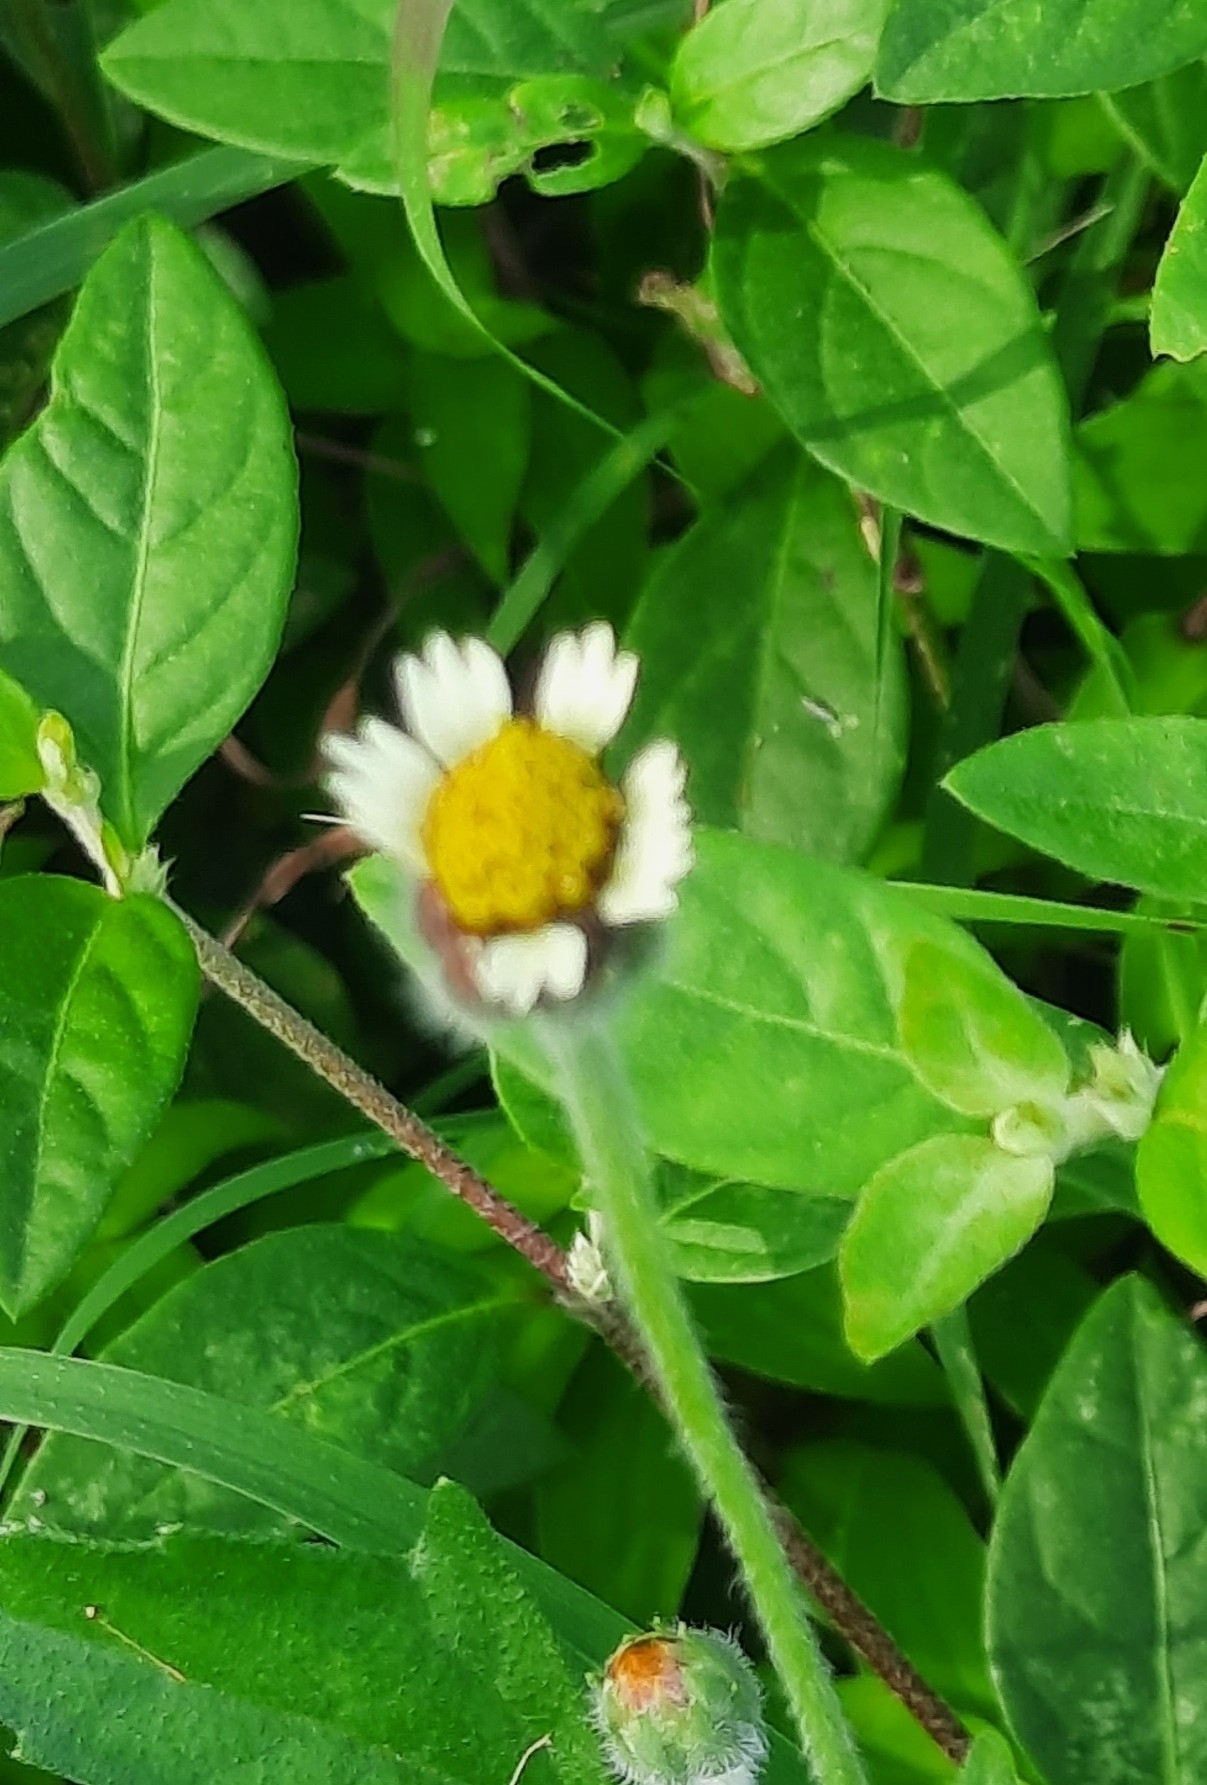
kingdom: Plantae
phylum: Tracheophyta
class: Magnoliopsida
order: Asterales
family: Asteraceae
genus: Tridax
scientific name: Tridax procumbens
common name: Coatbuttons
